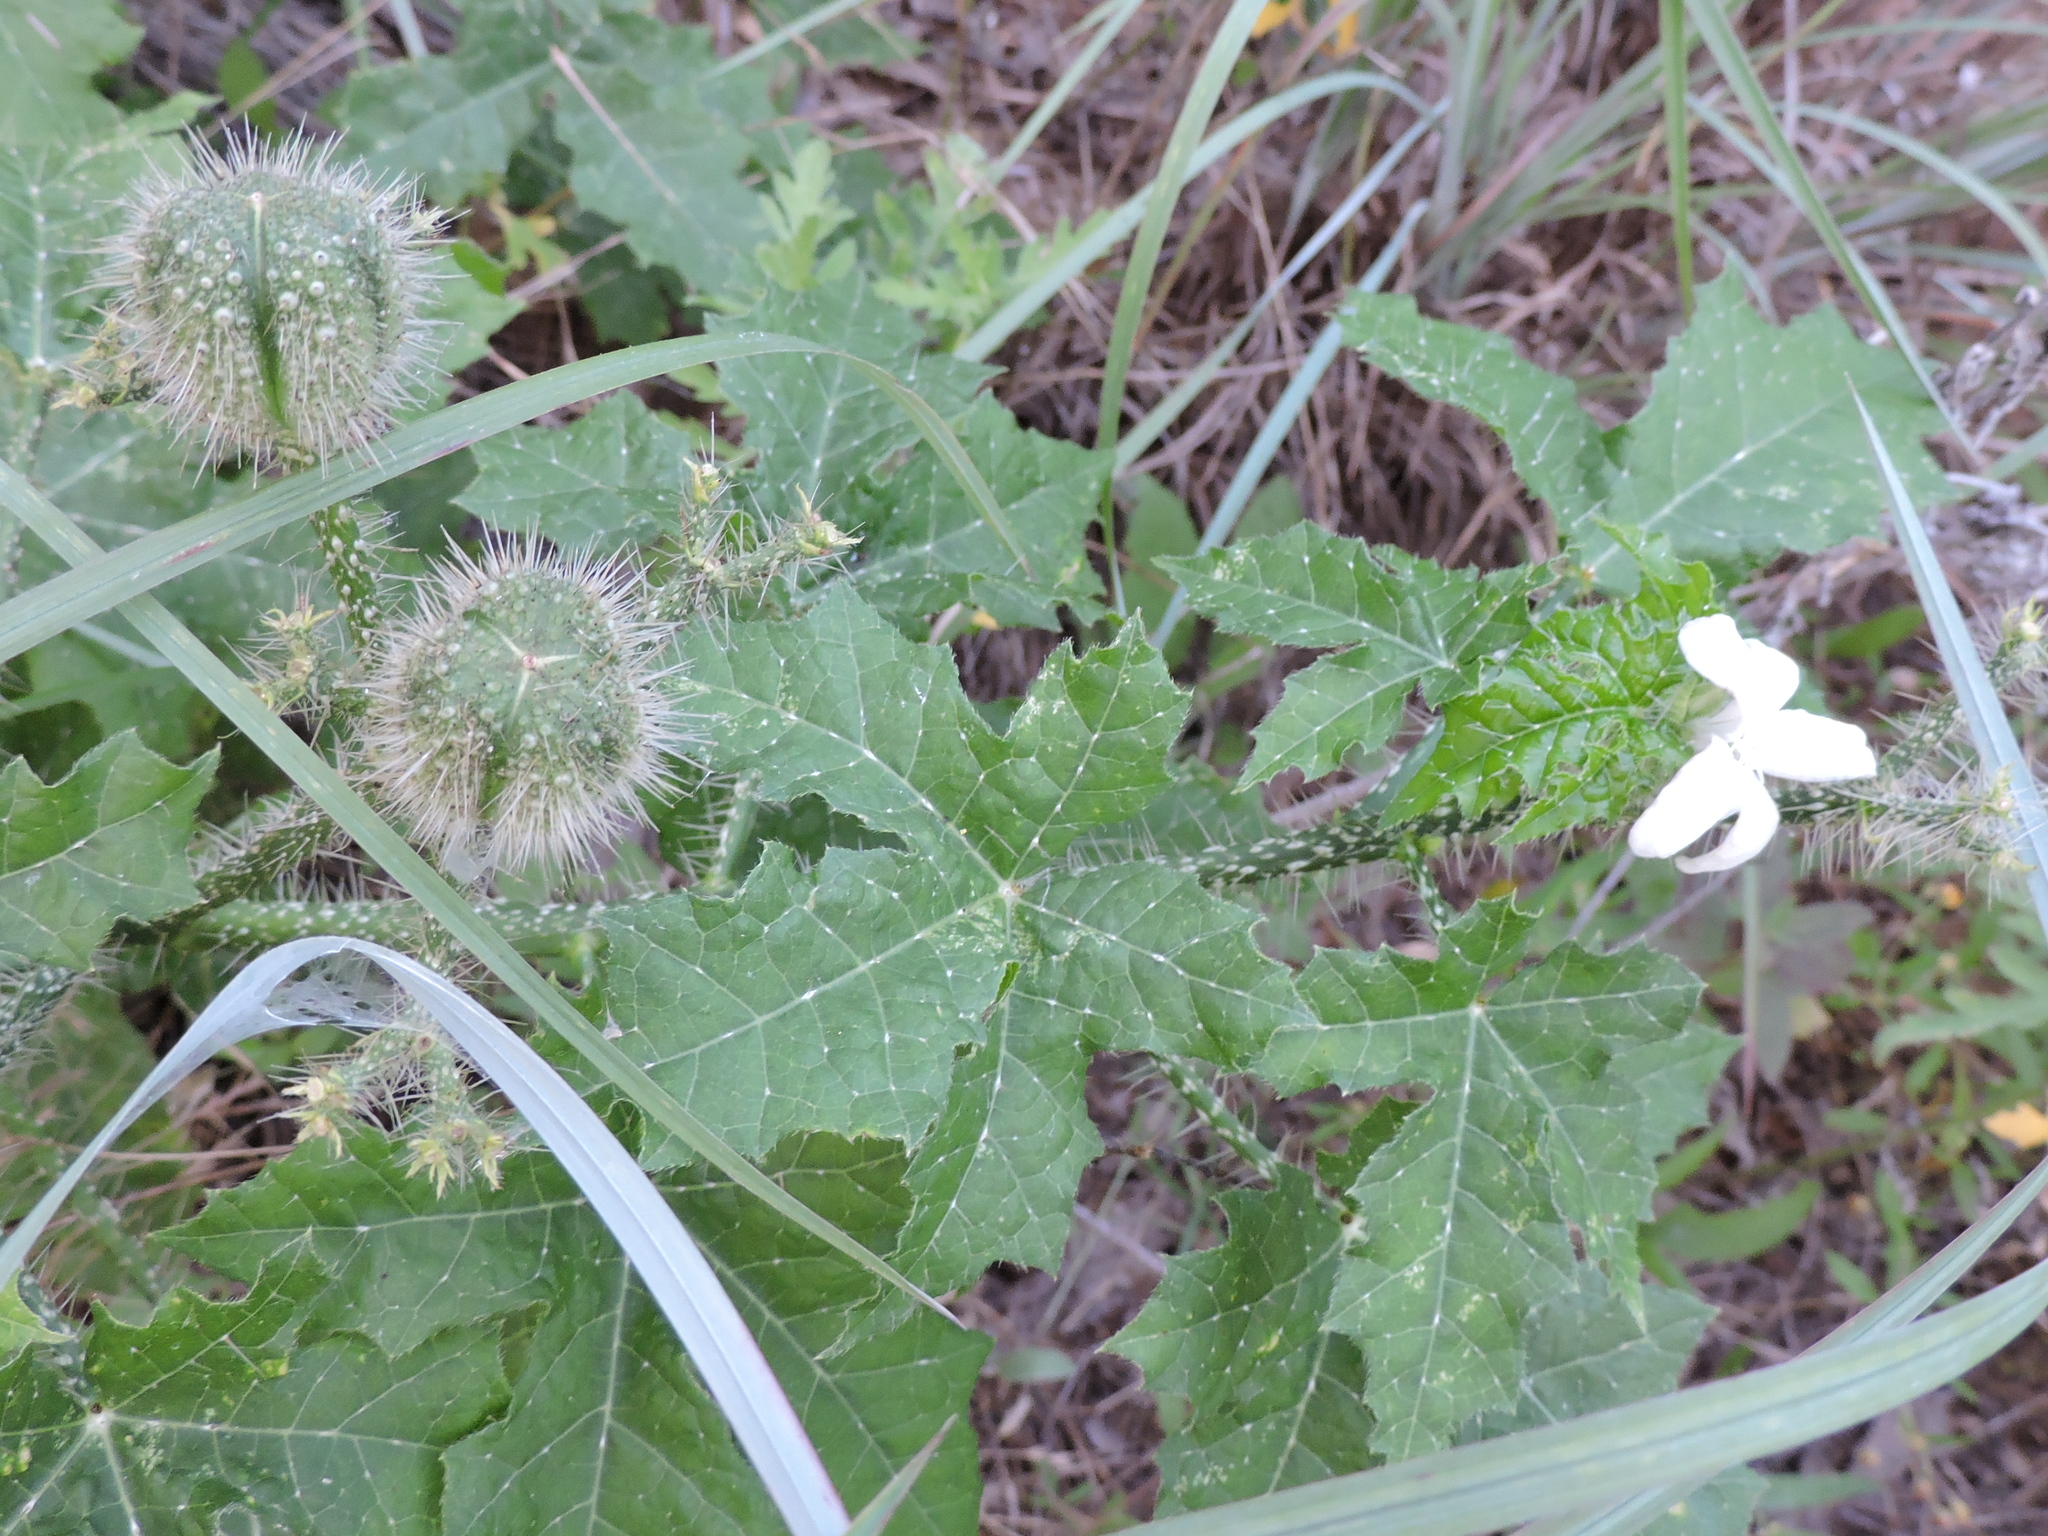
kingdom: Plantae
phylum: Tracheophyta
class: Magnoliopsida
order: Malpighiales
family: Euphorbiaceae
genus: Cnidoscolus
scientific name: Cnidoscolus texanus
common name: Texas bull-nettle
